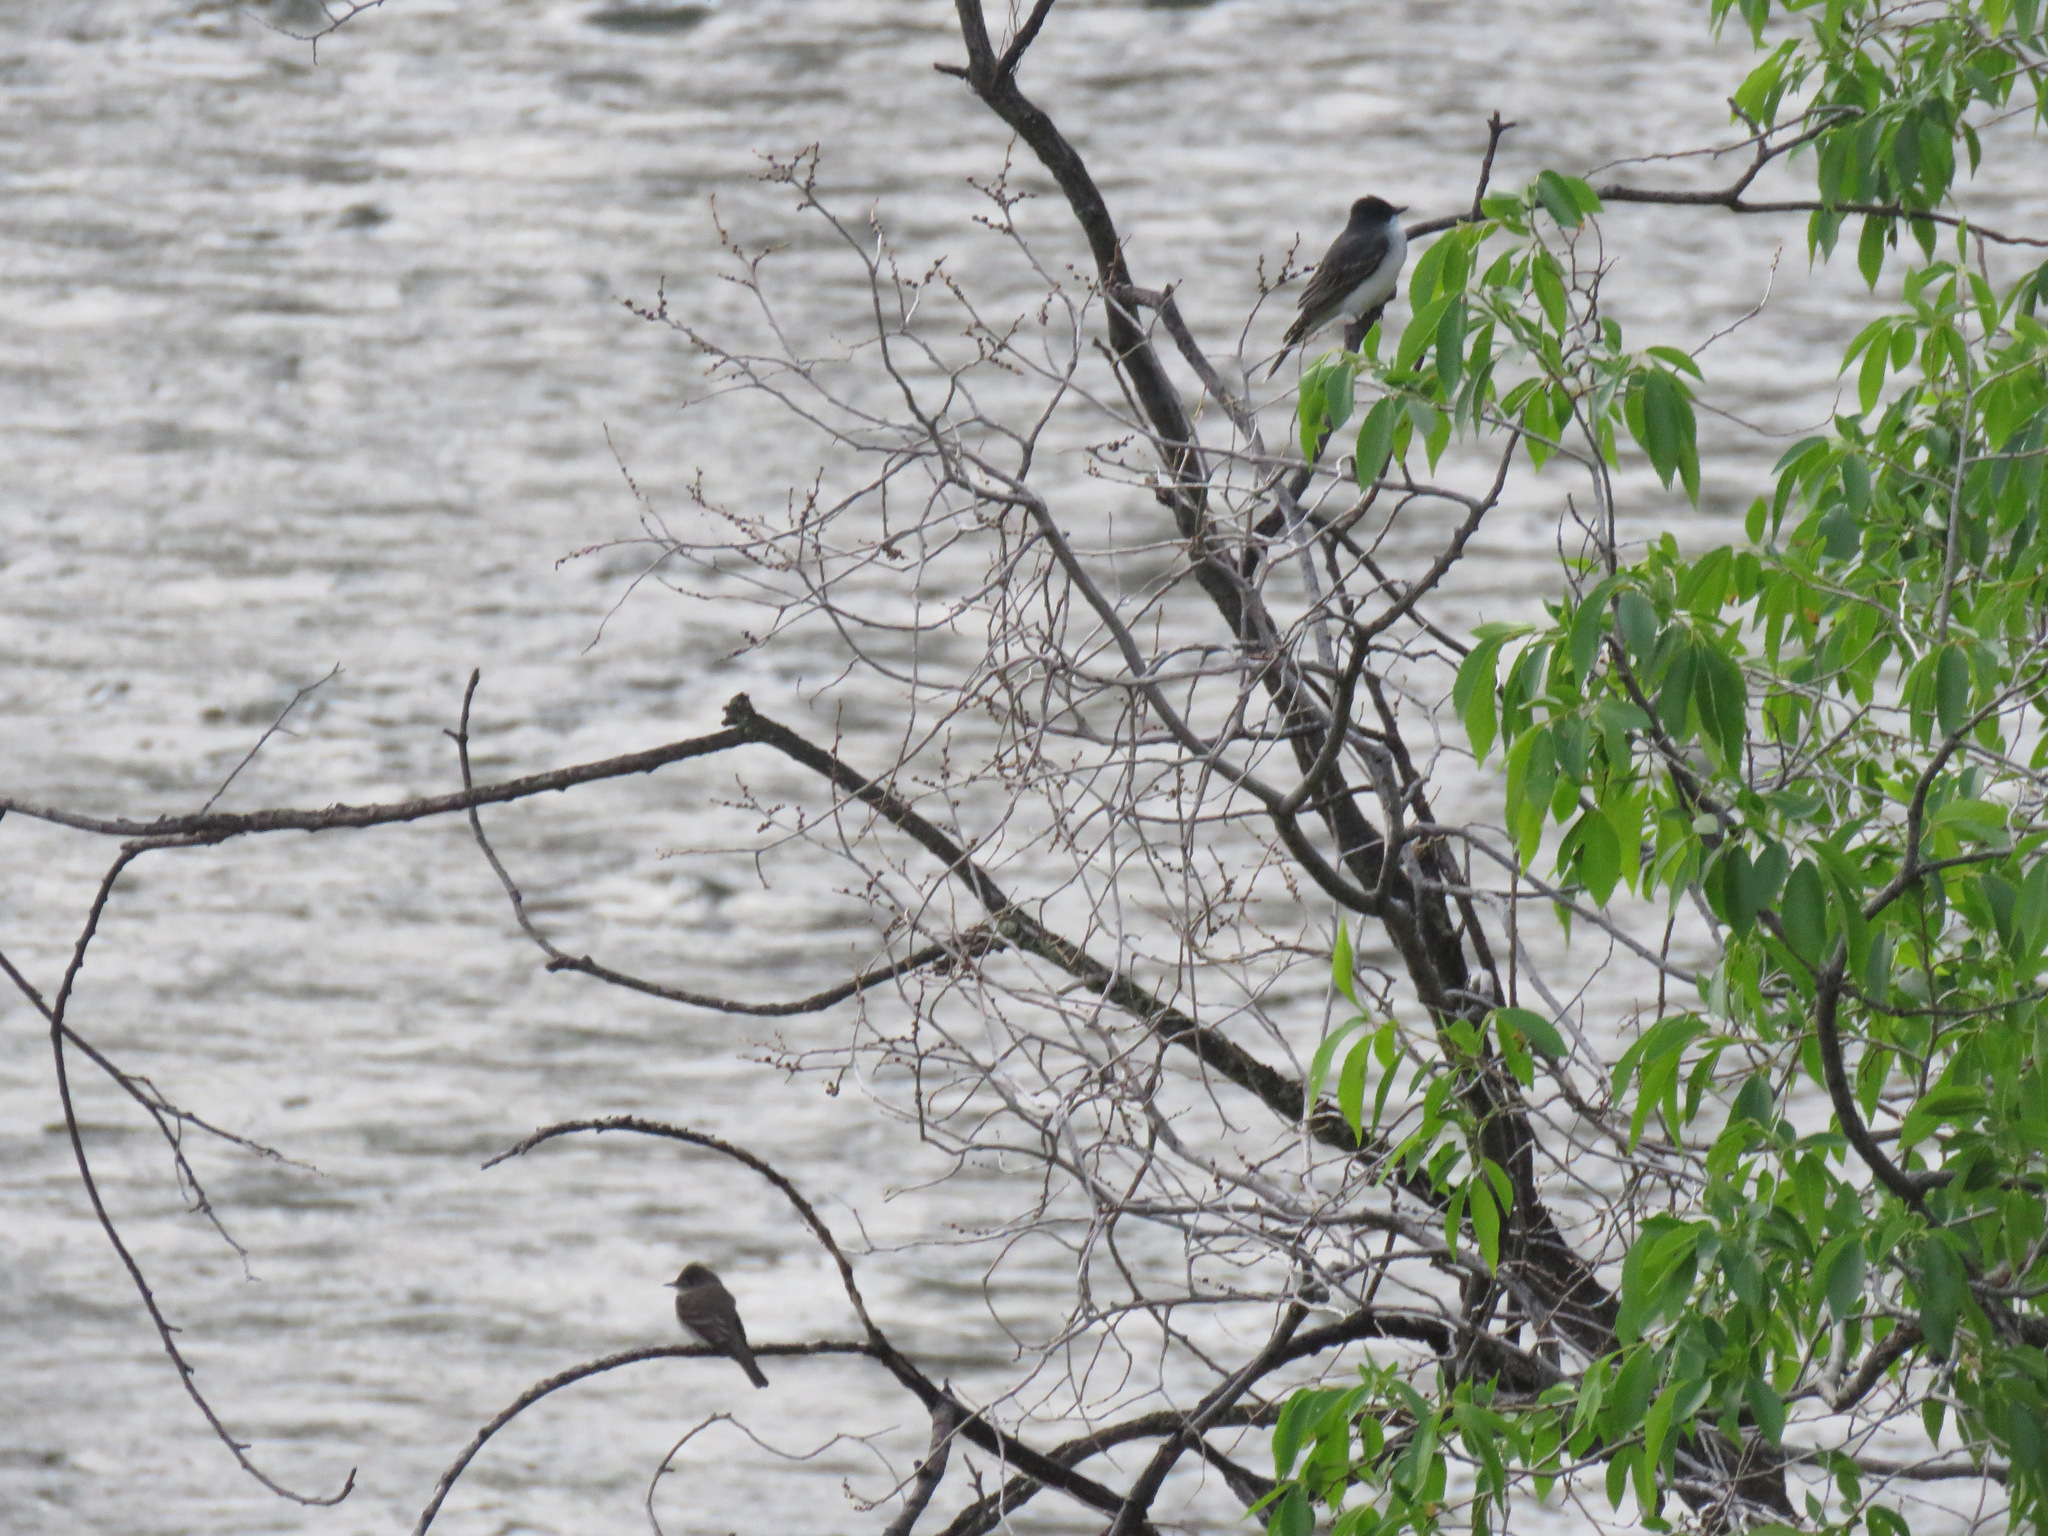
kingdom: Animalia
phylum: Chordata
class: Aves
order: Passeriformes
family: Tyrannidae
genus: Tyrannus
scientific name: Tyrannus tyrannus
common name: Eastern kingbird
